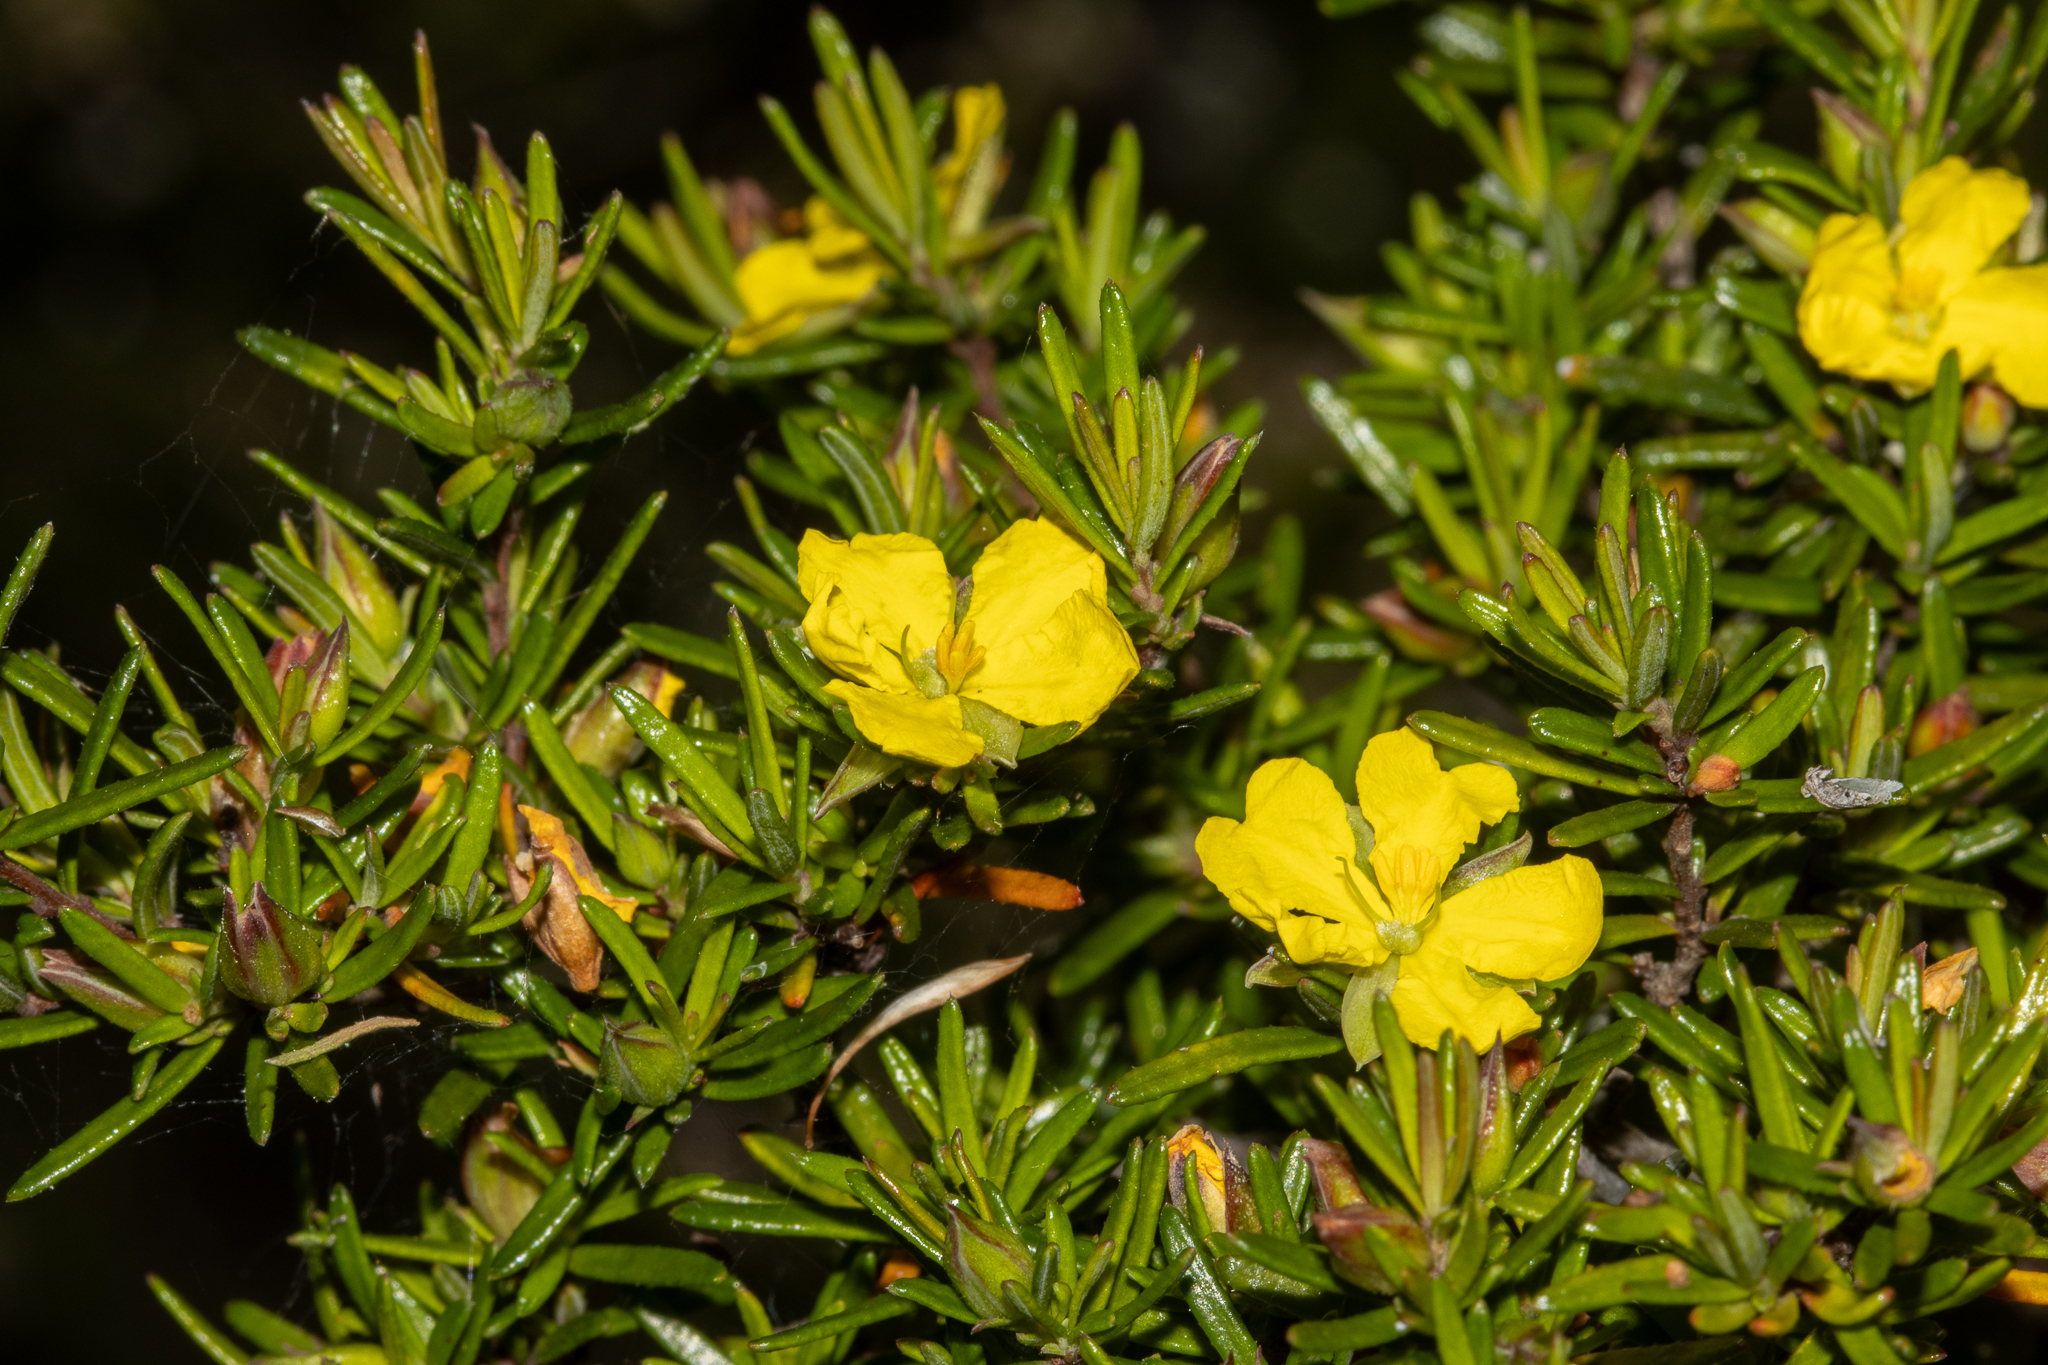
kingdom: Plantae
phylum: Tracheophyta
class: Magnoliopsida
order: Dilleniales
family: Dilleniaceae
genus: Hibbertia
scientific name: Hibbertia riparia
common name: Erect guinea-flower
